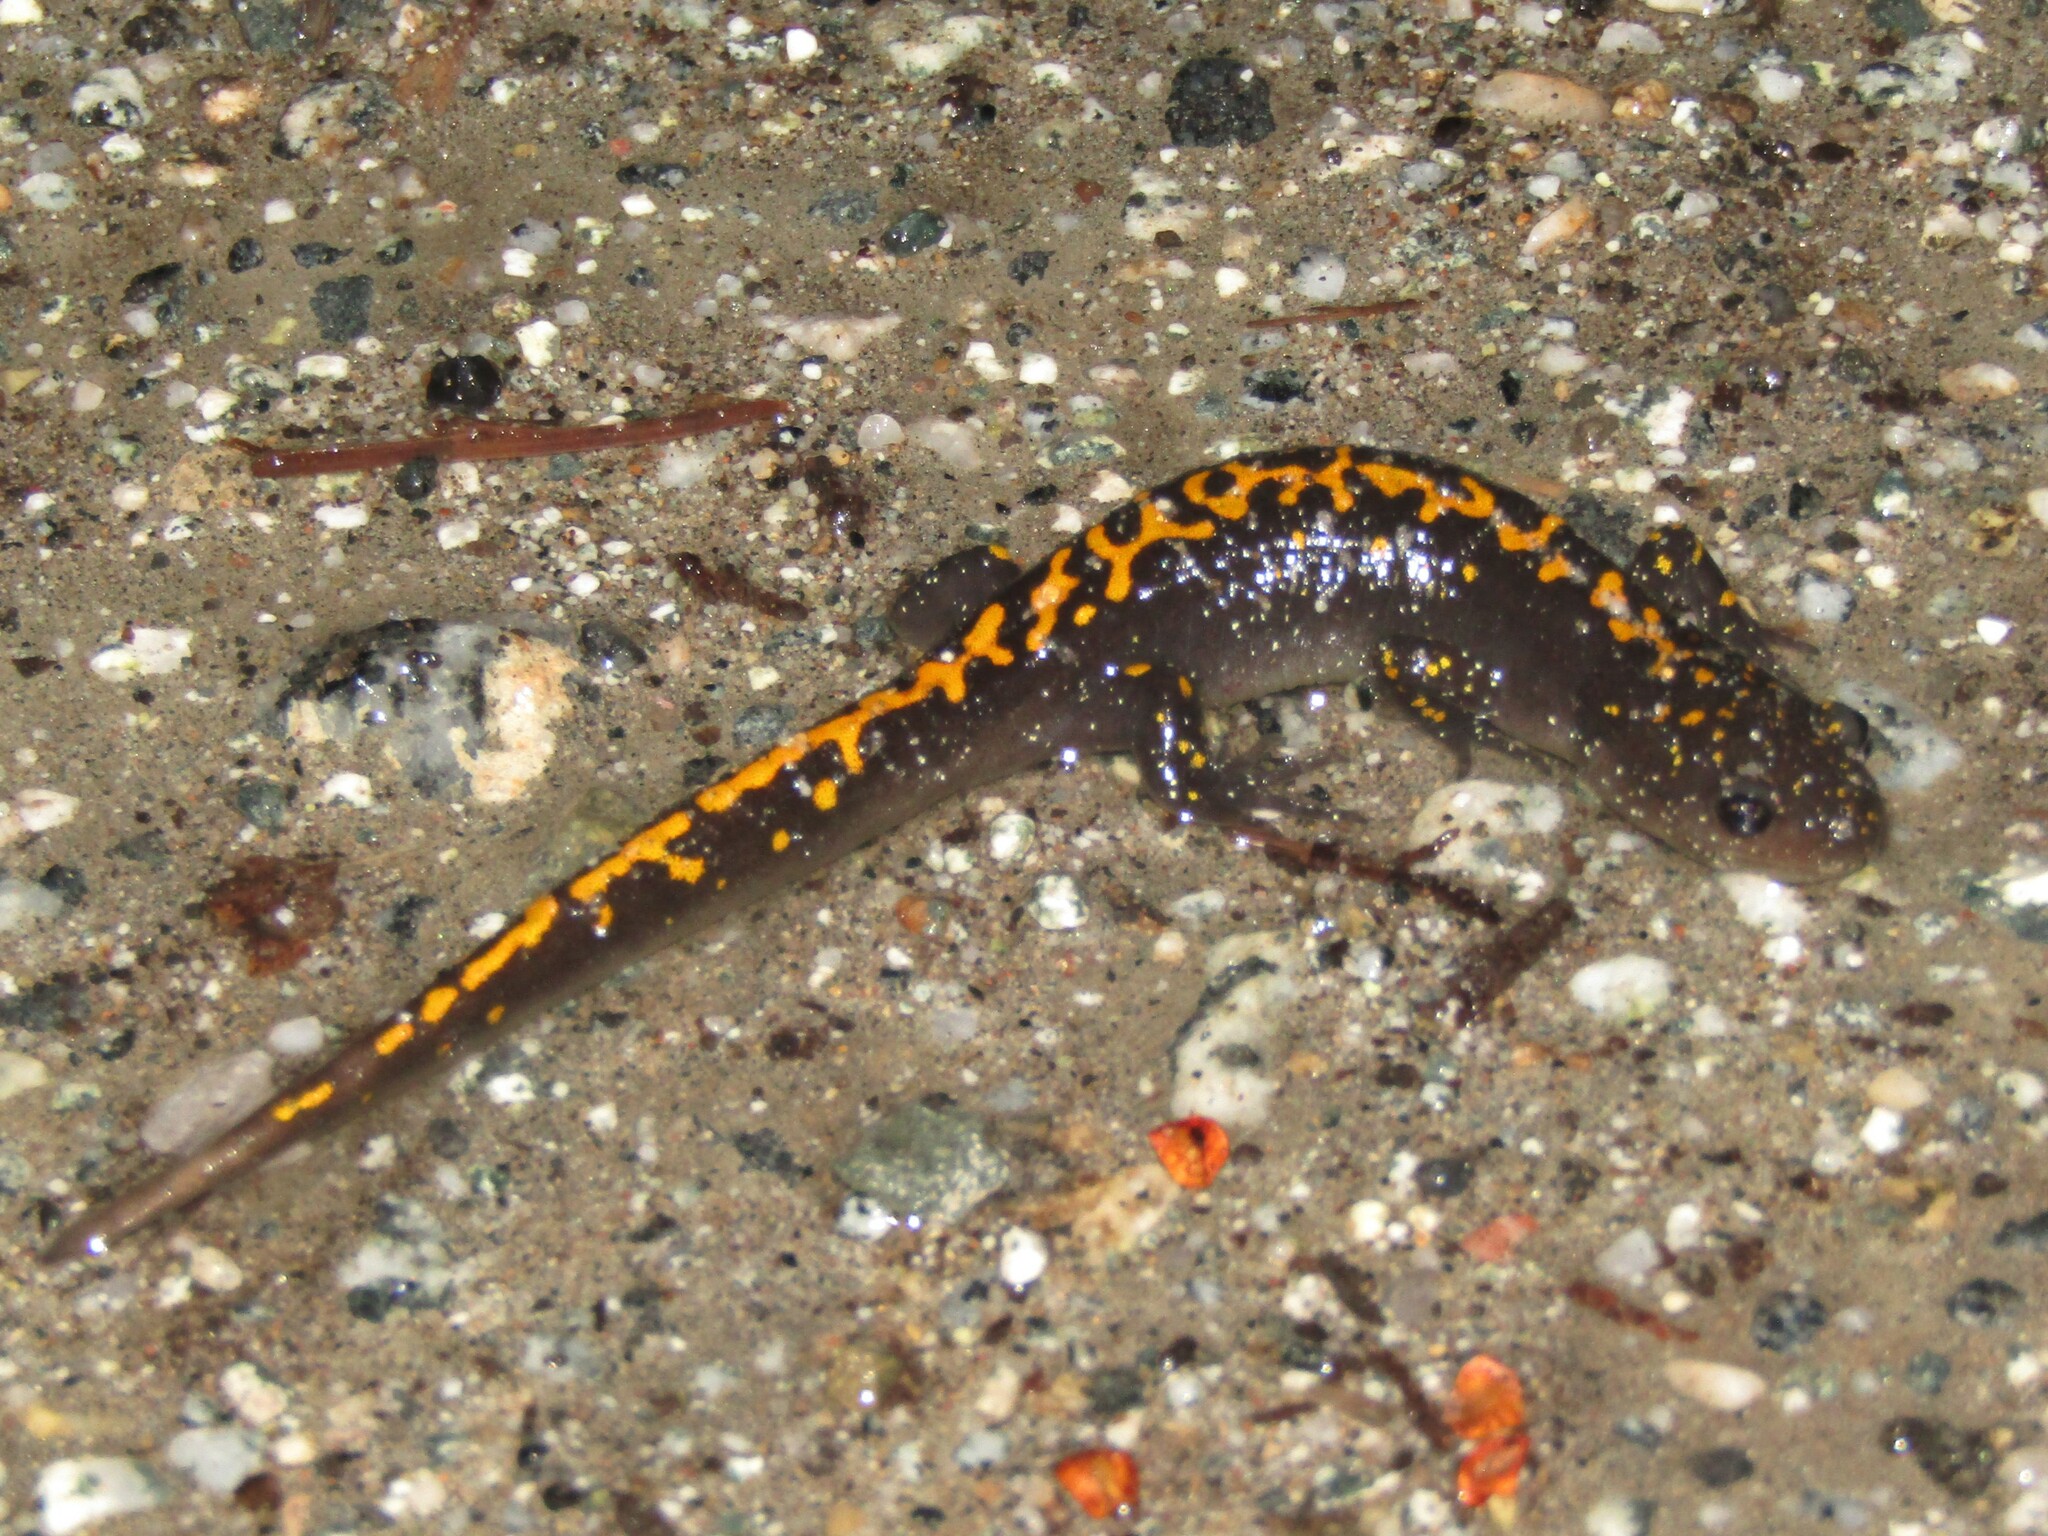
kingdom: Animalia
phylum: Chordata
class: Amphibia
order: Caudata
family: Ambystomatidae
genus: Ambystoma
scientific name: Ambystoma macrodactylum
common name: Long-toed salamander
